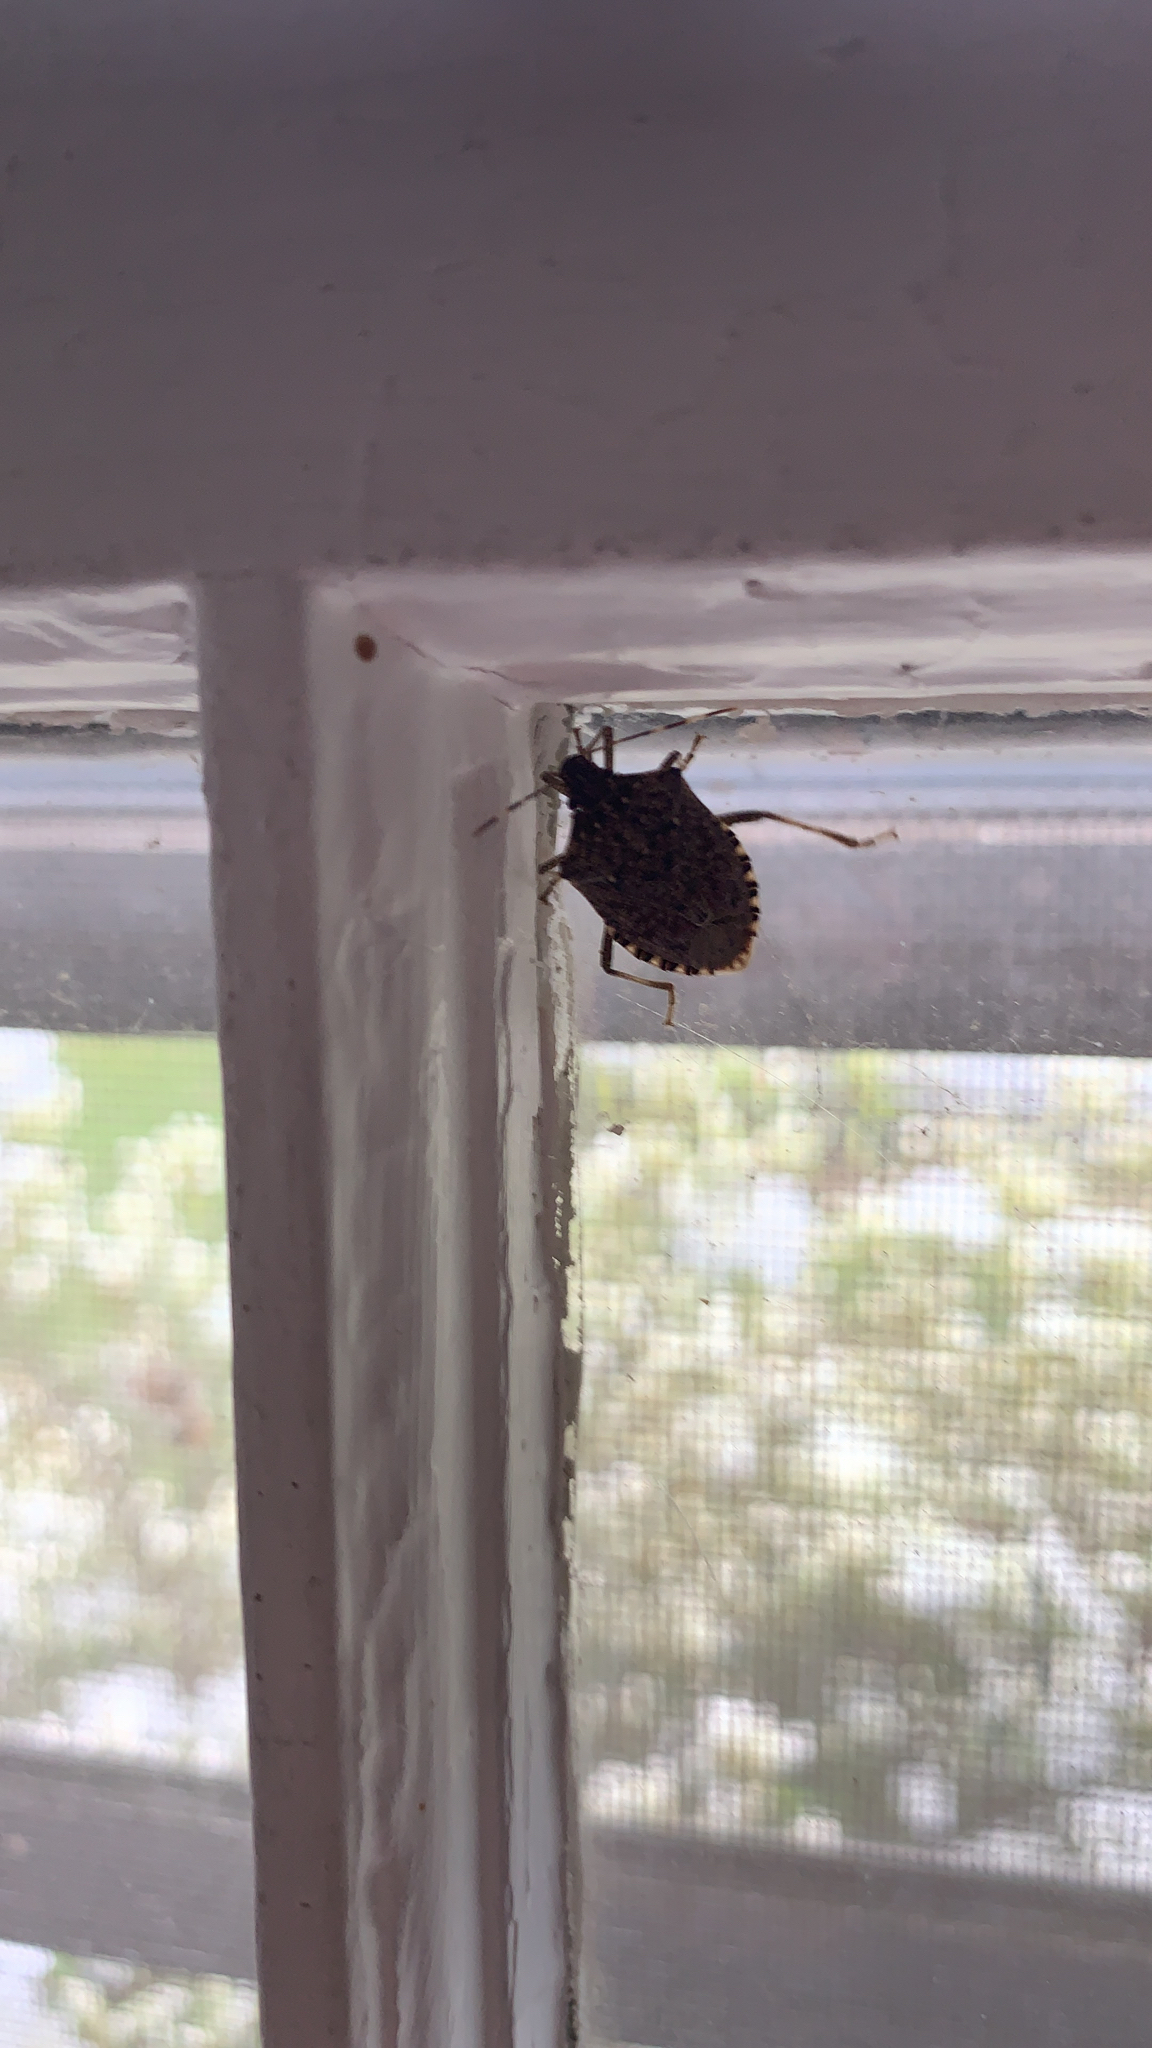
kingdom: Animalia
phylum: Arthropoda
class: Insecta
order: Hemiptera
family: Pentatomidae
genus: Halyomorpha
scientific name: Halyomorpha halys
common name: Brown marmorated stink bug
